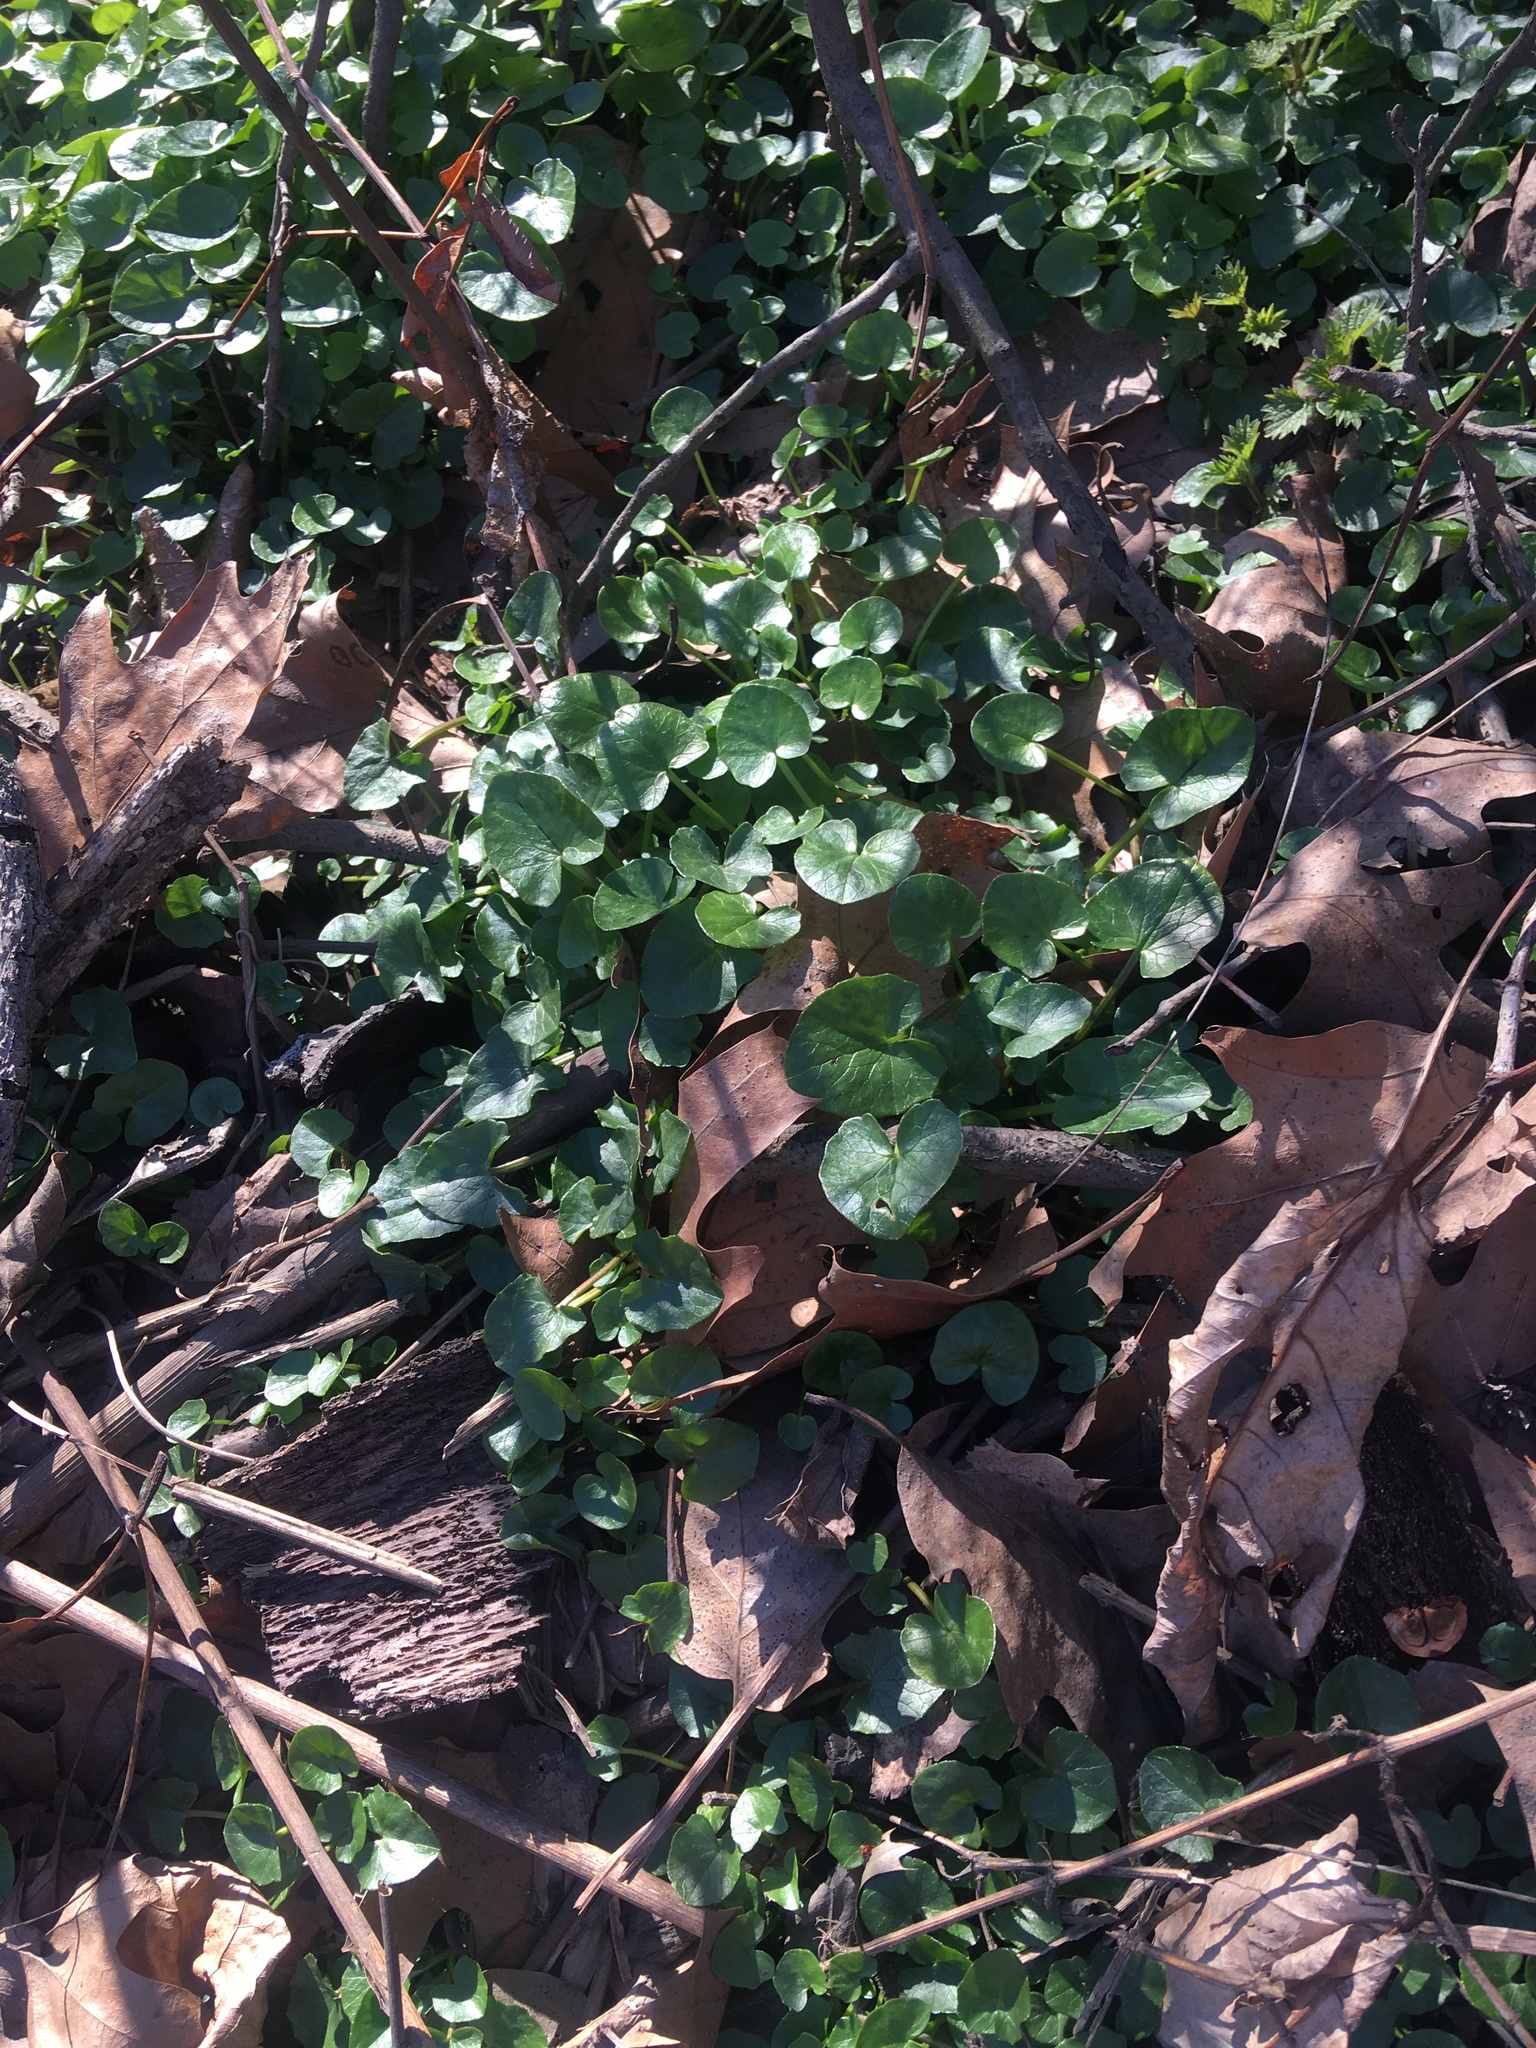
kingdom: Plantae
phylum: Tracheophyta
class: Magnoliopsida
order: Ranunculales
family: Ranunculaceae
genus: Ficaria
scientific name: Ficaria verna
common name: Lesser celandine
